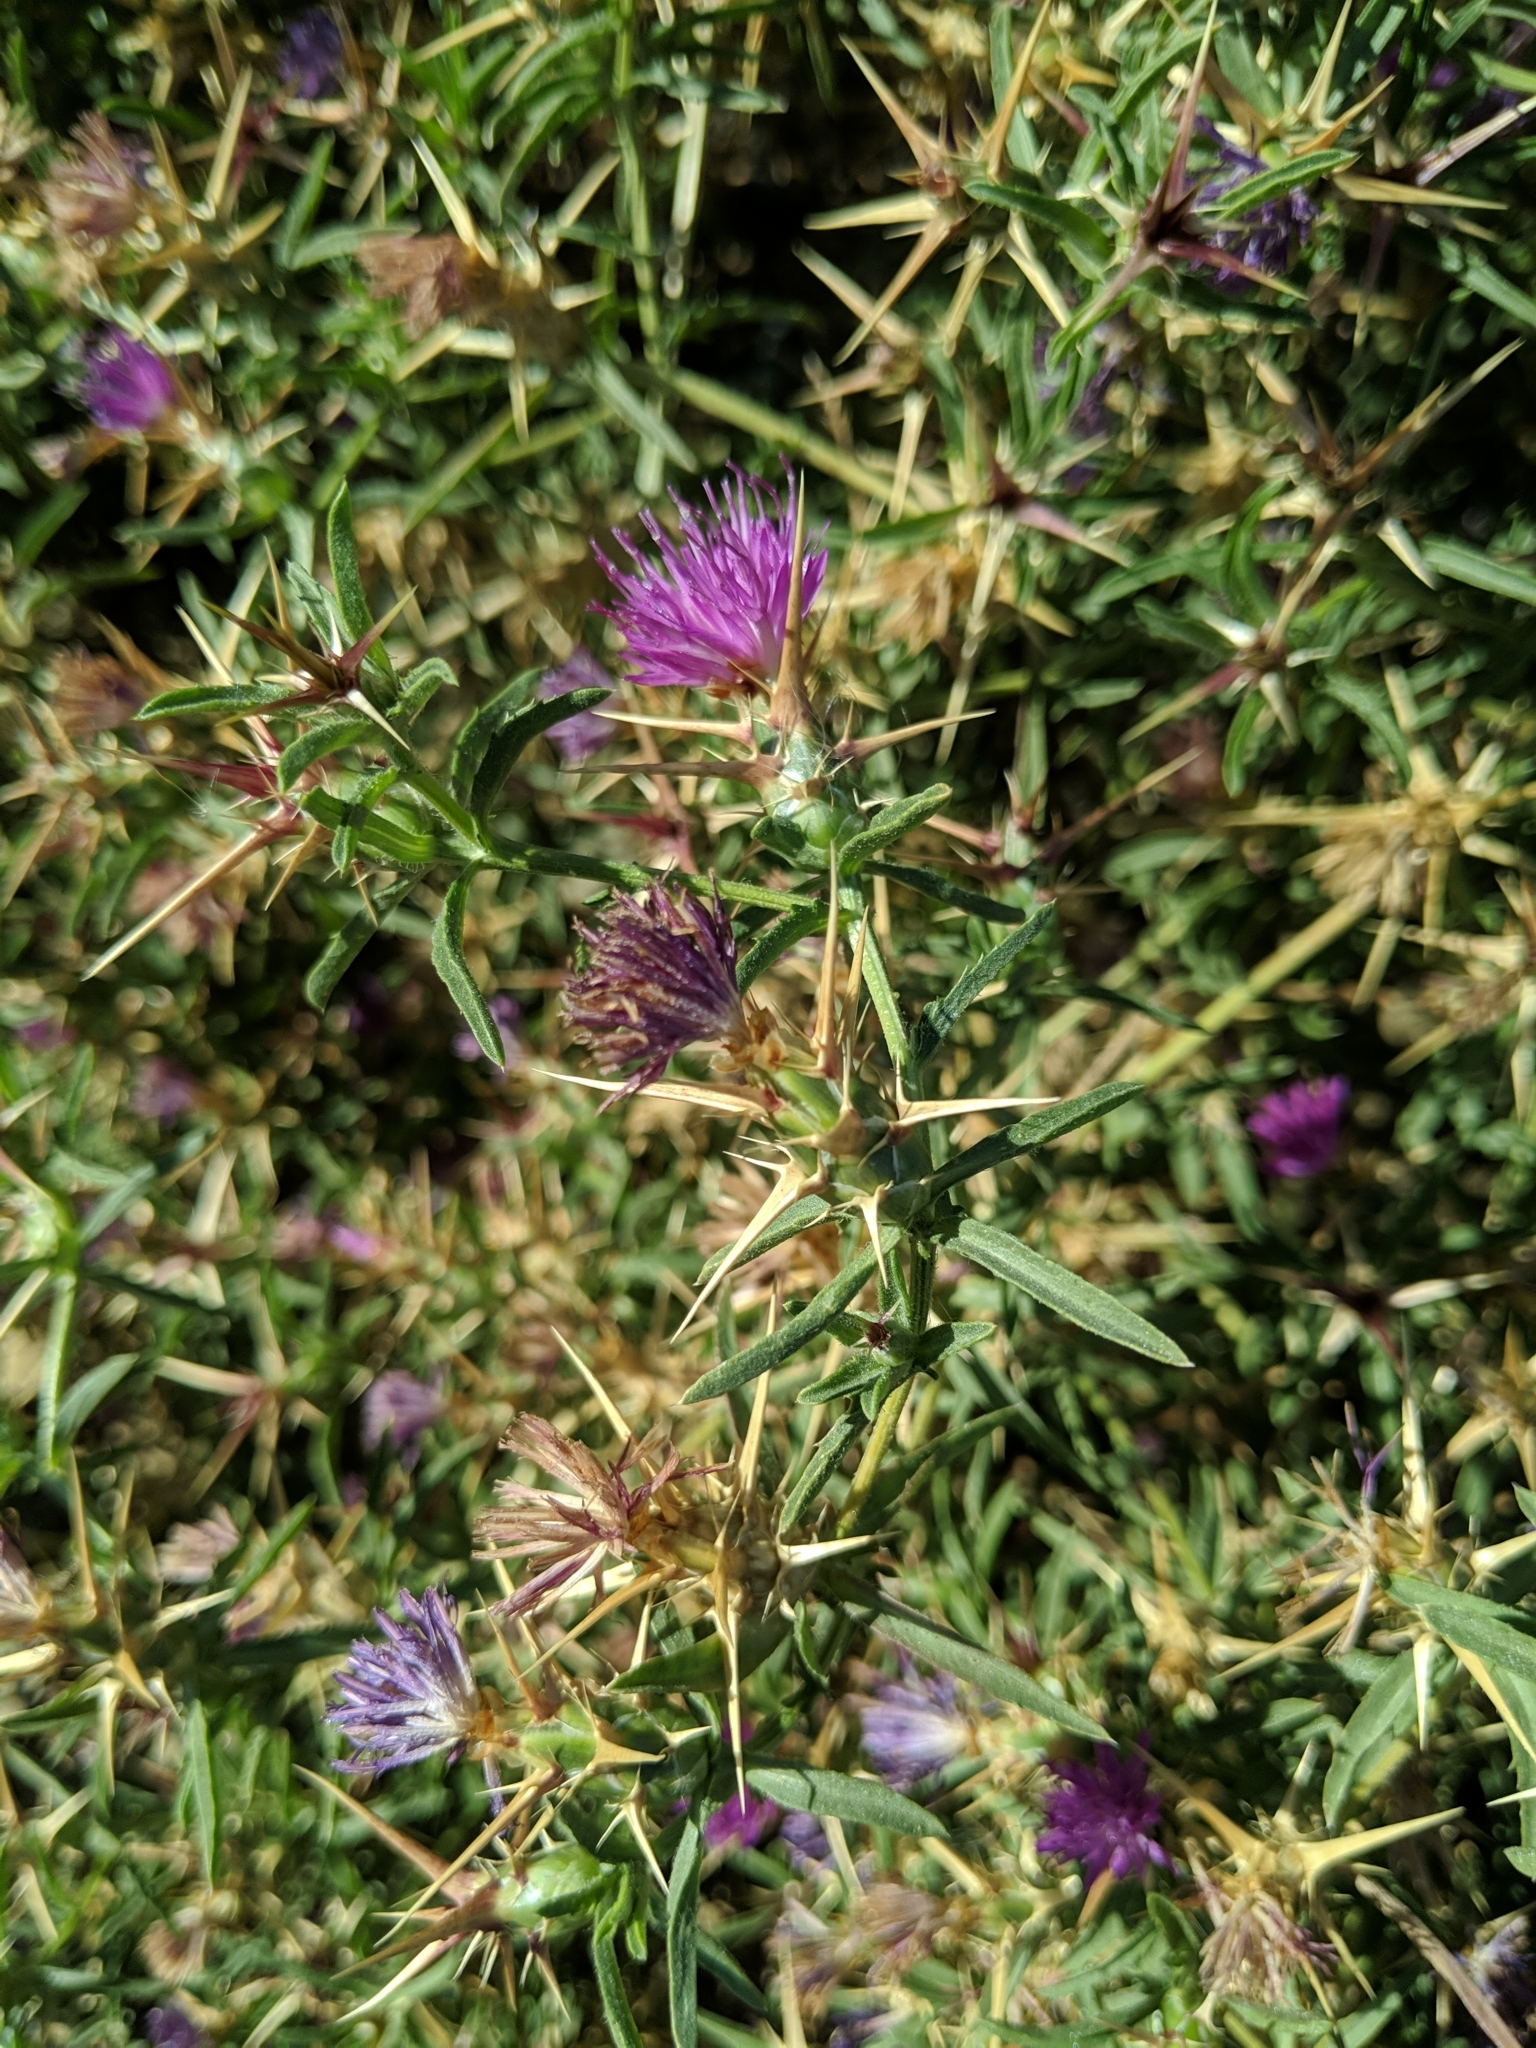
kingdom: Plantae
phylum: Tracheophyta
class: Magnoliopsida
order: Asterales
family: Asteraceae
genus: Centaurea
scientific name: Centaurea calcitrapa
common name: Red star-thistle
